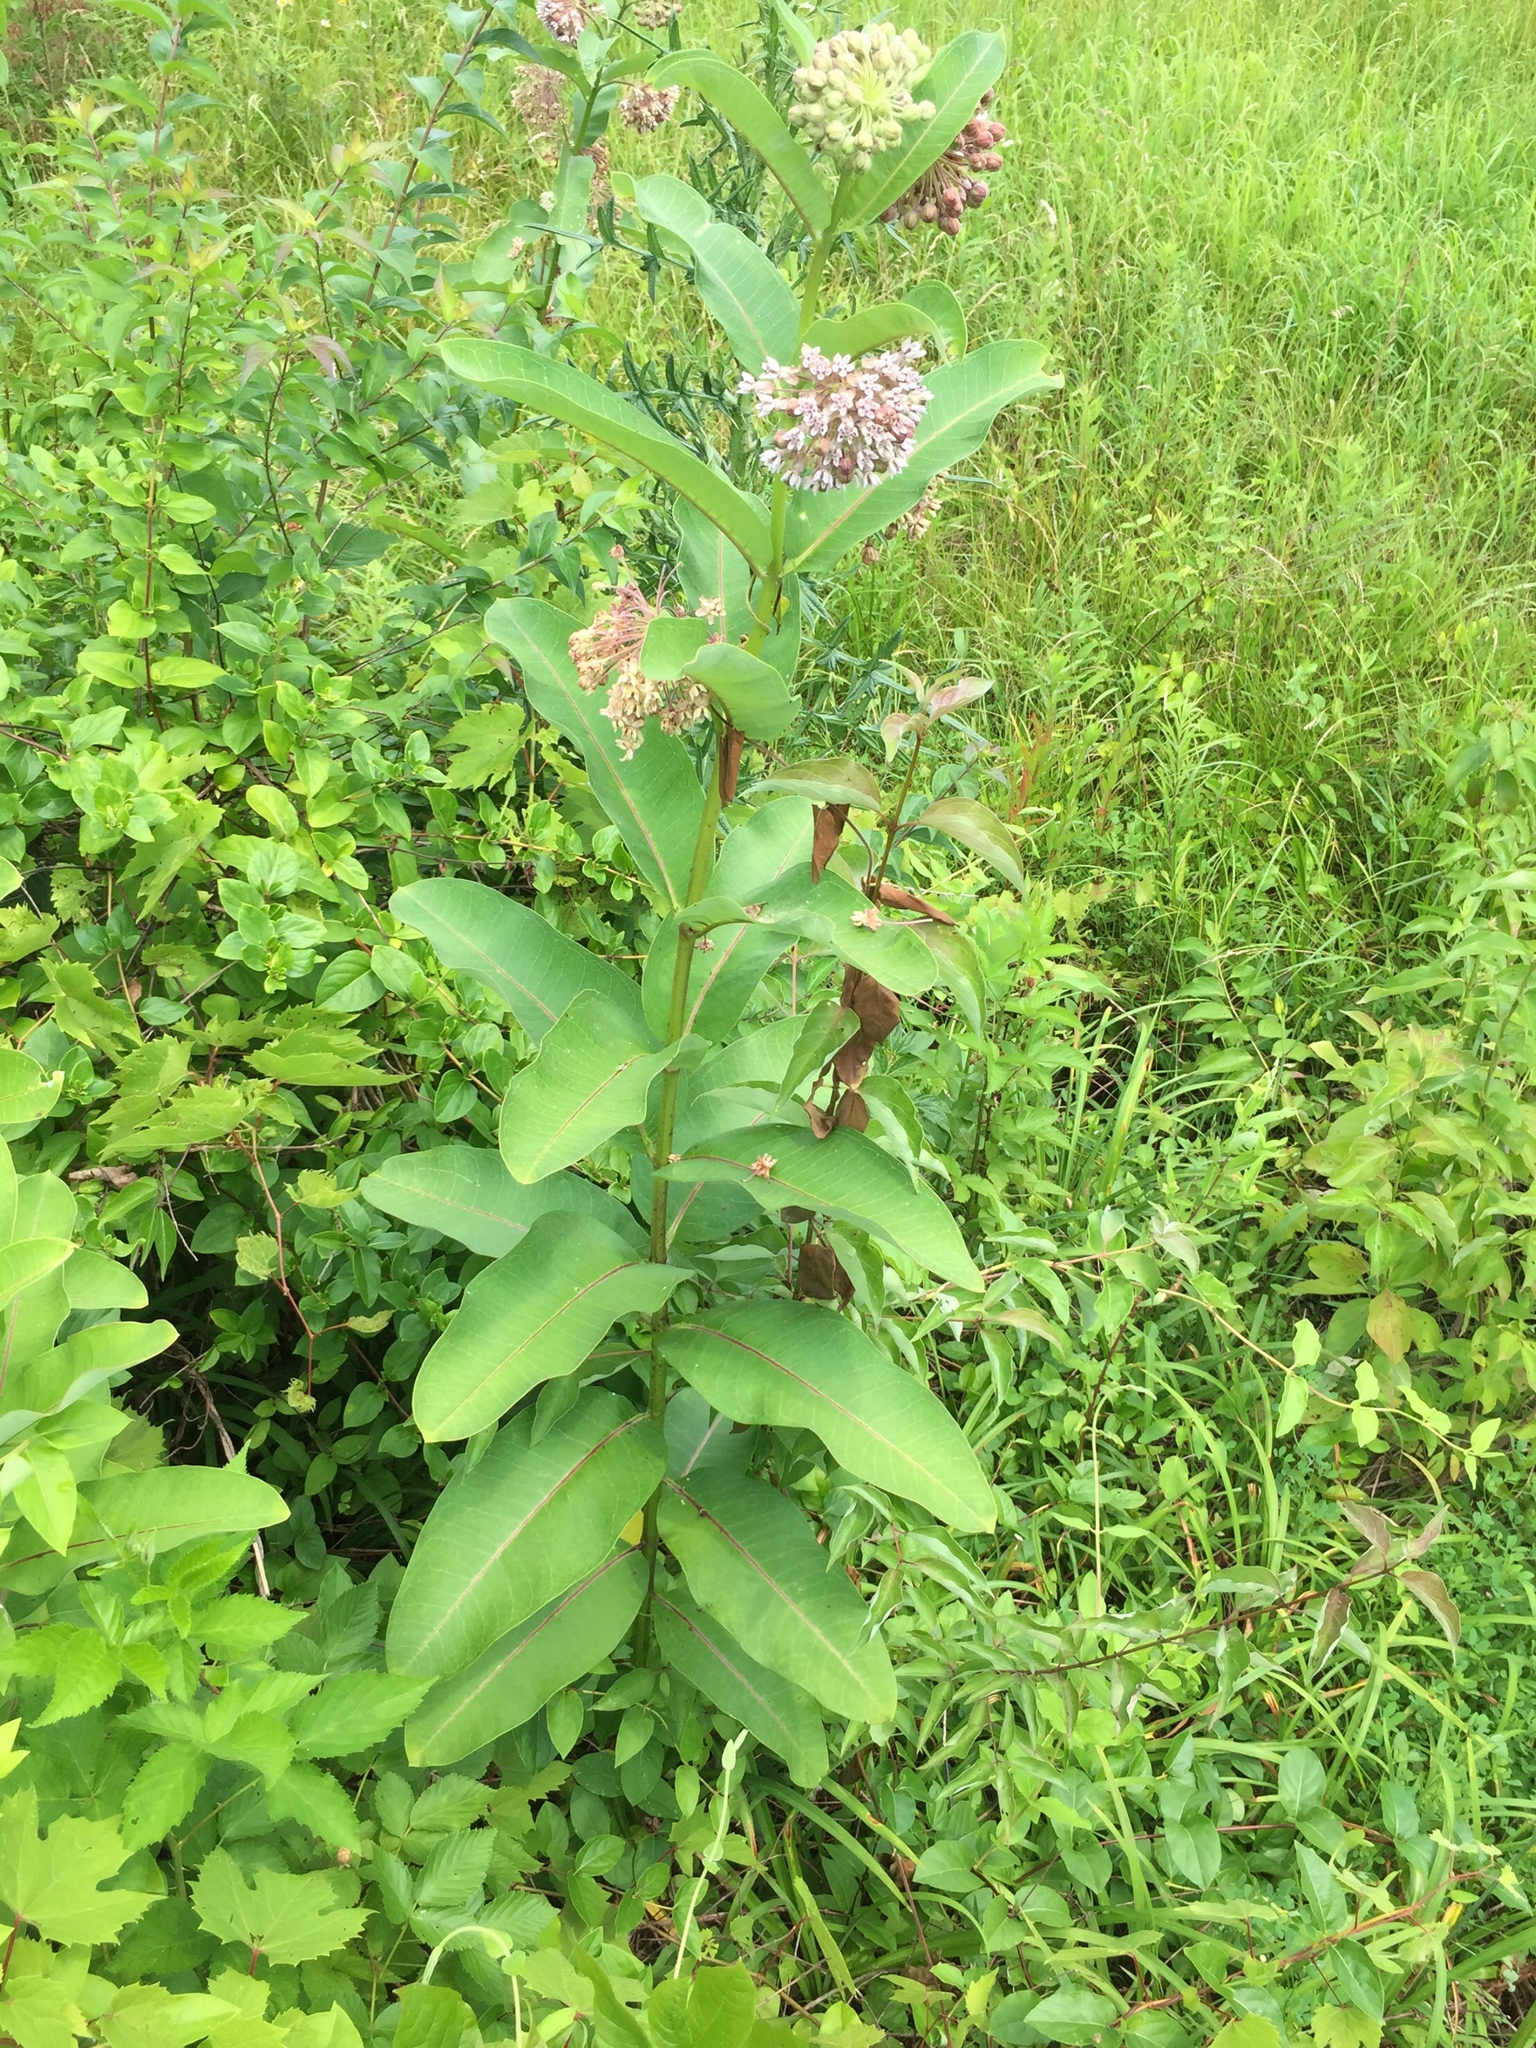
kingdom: Plantae
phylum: Tracheophyta
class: Magnoliopsida
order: Gentianales
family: Apocynaceae
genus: Asclepias
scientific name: Asclepias syriaca
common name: Common milkweed
